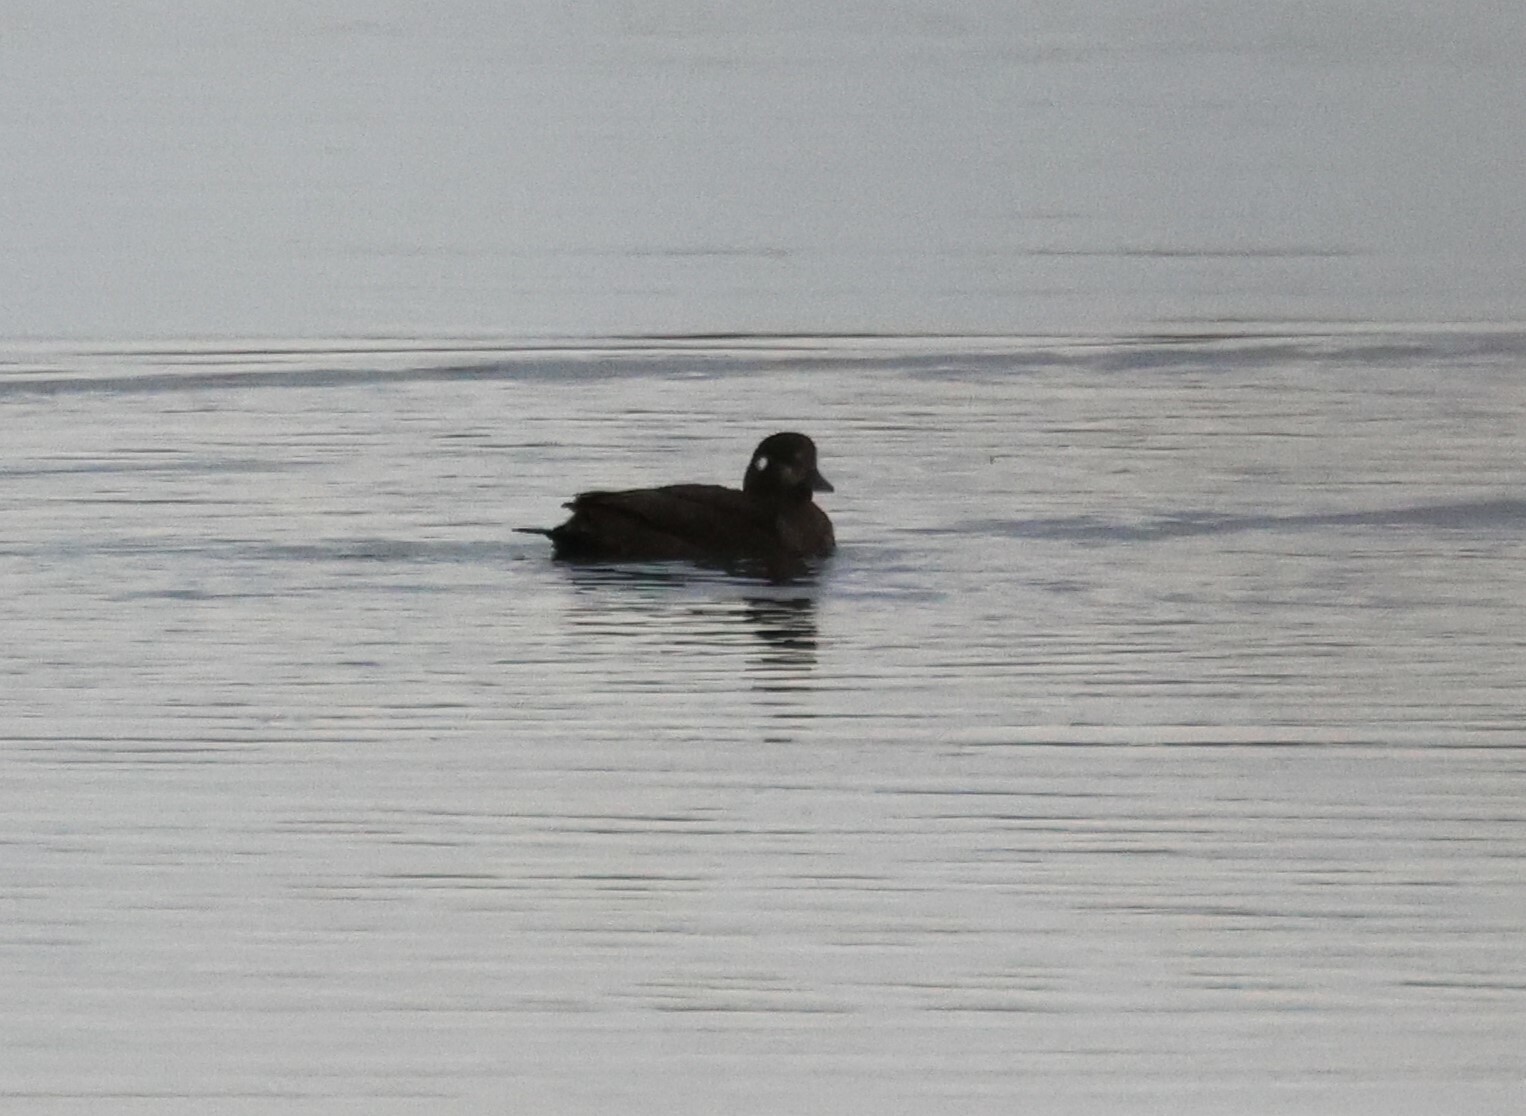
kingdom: Animalia
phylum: Chordata
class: Aves
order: Anseriformes
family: Anatidae
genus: Histrionicus
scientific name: Histrionicus histrionicus
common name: Harlequin duck
